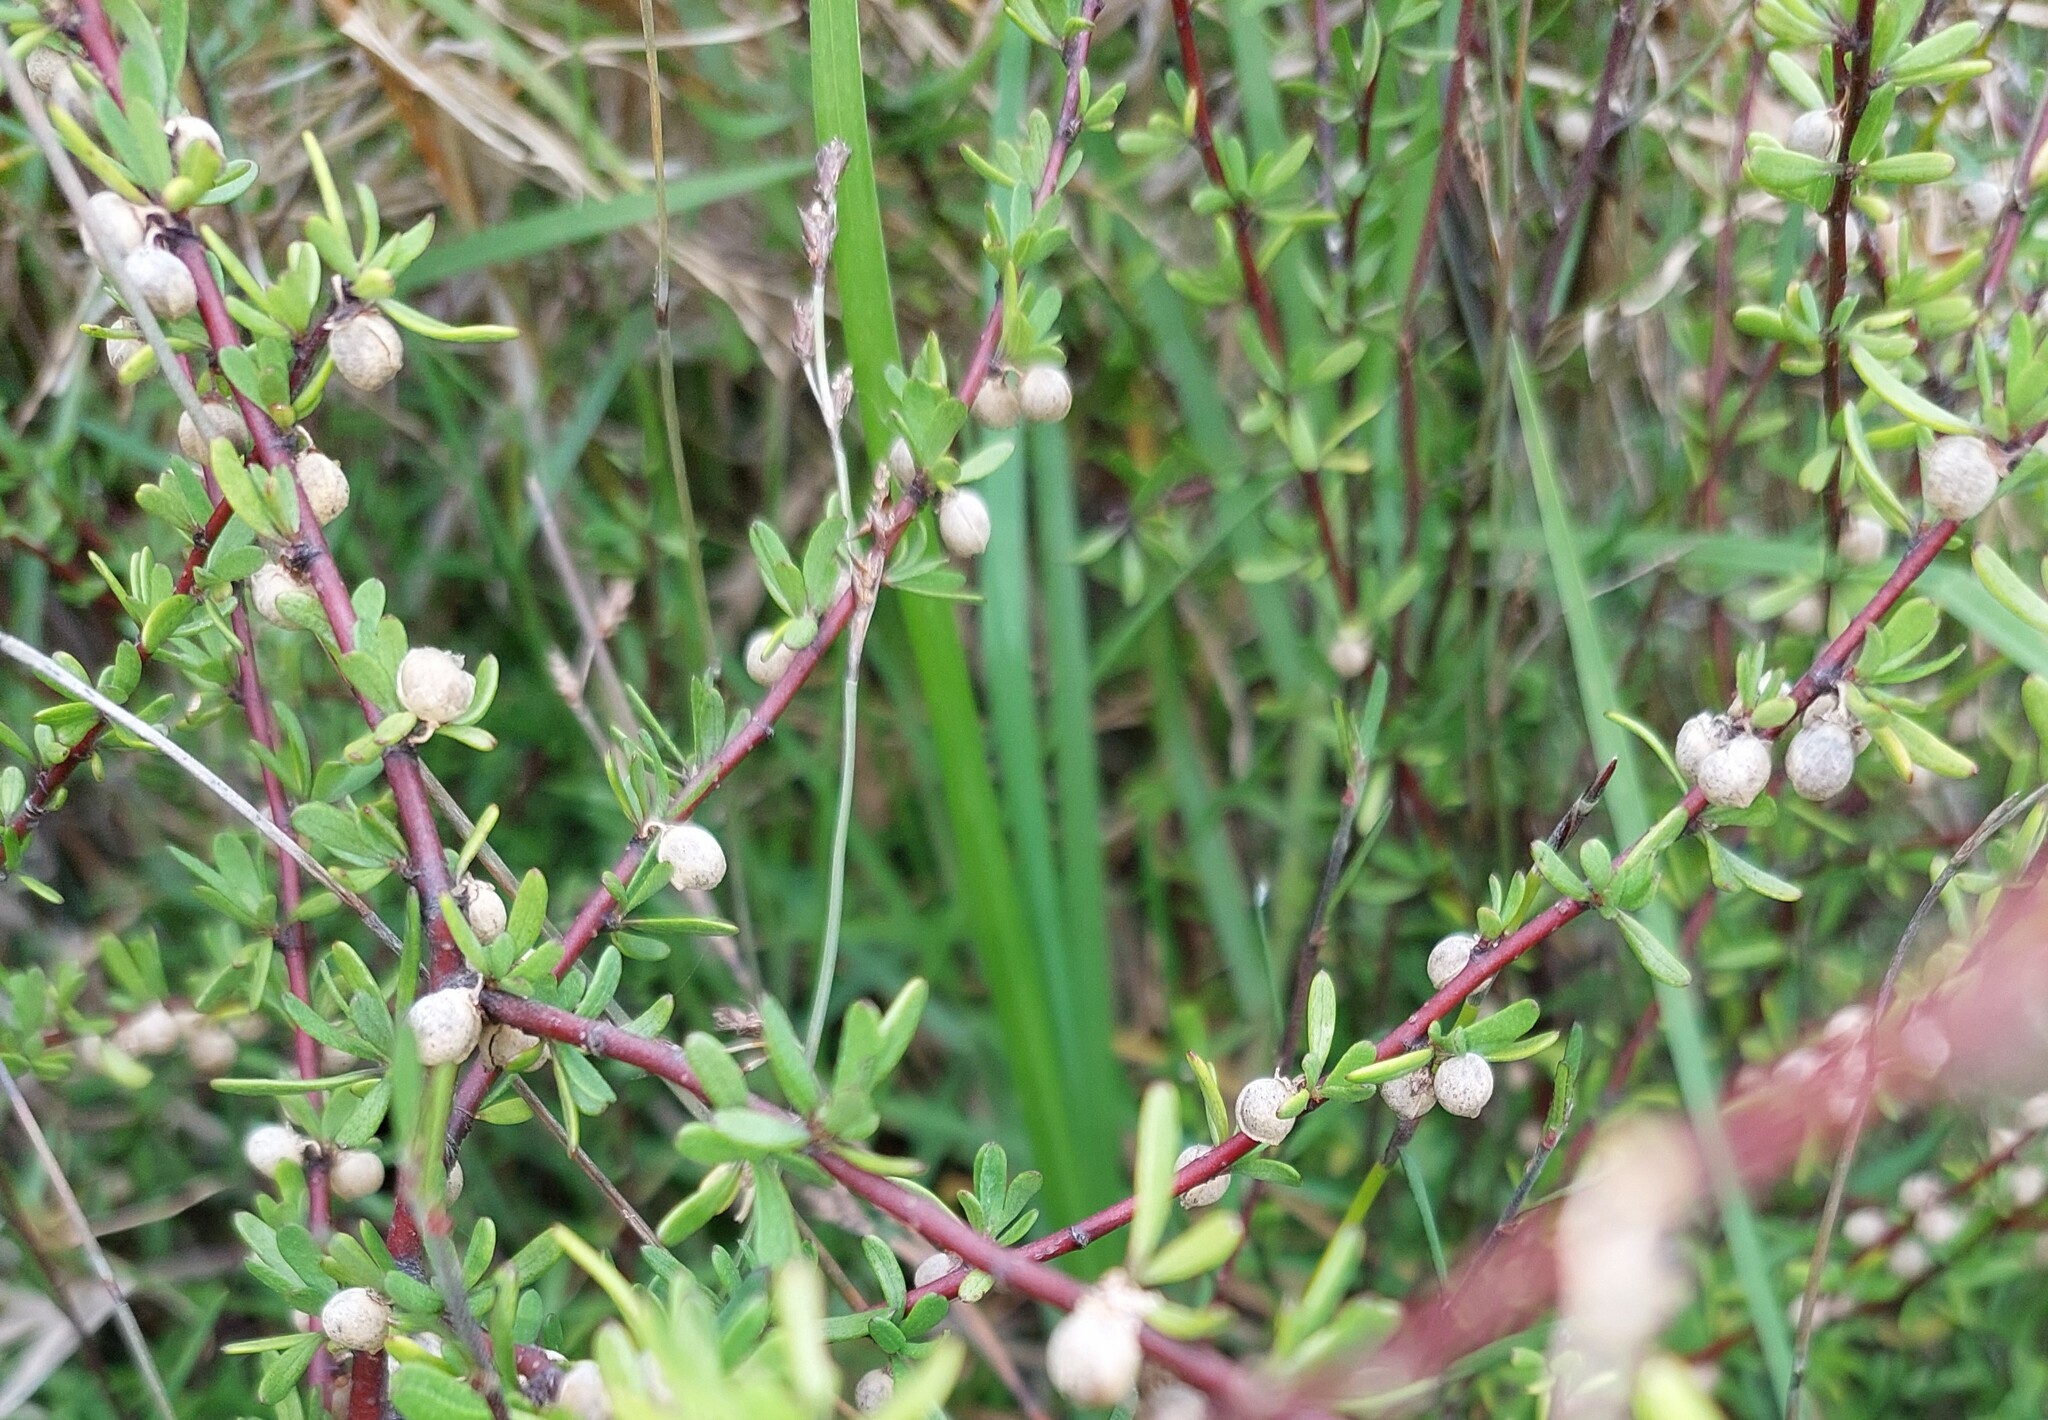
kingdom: Plantae
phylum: Tracheophyta
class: Magnoliopsida
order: Malvales
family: Malvaceae
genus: Plagianthus
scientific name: Plagianthus divaricatus
